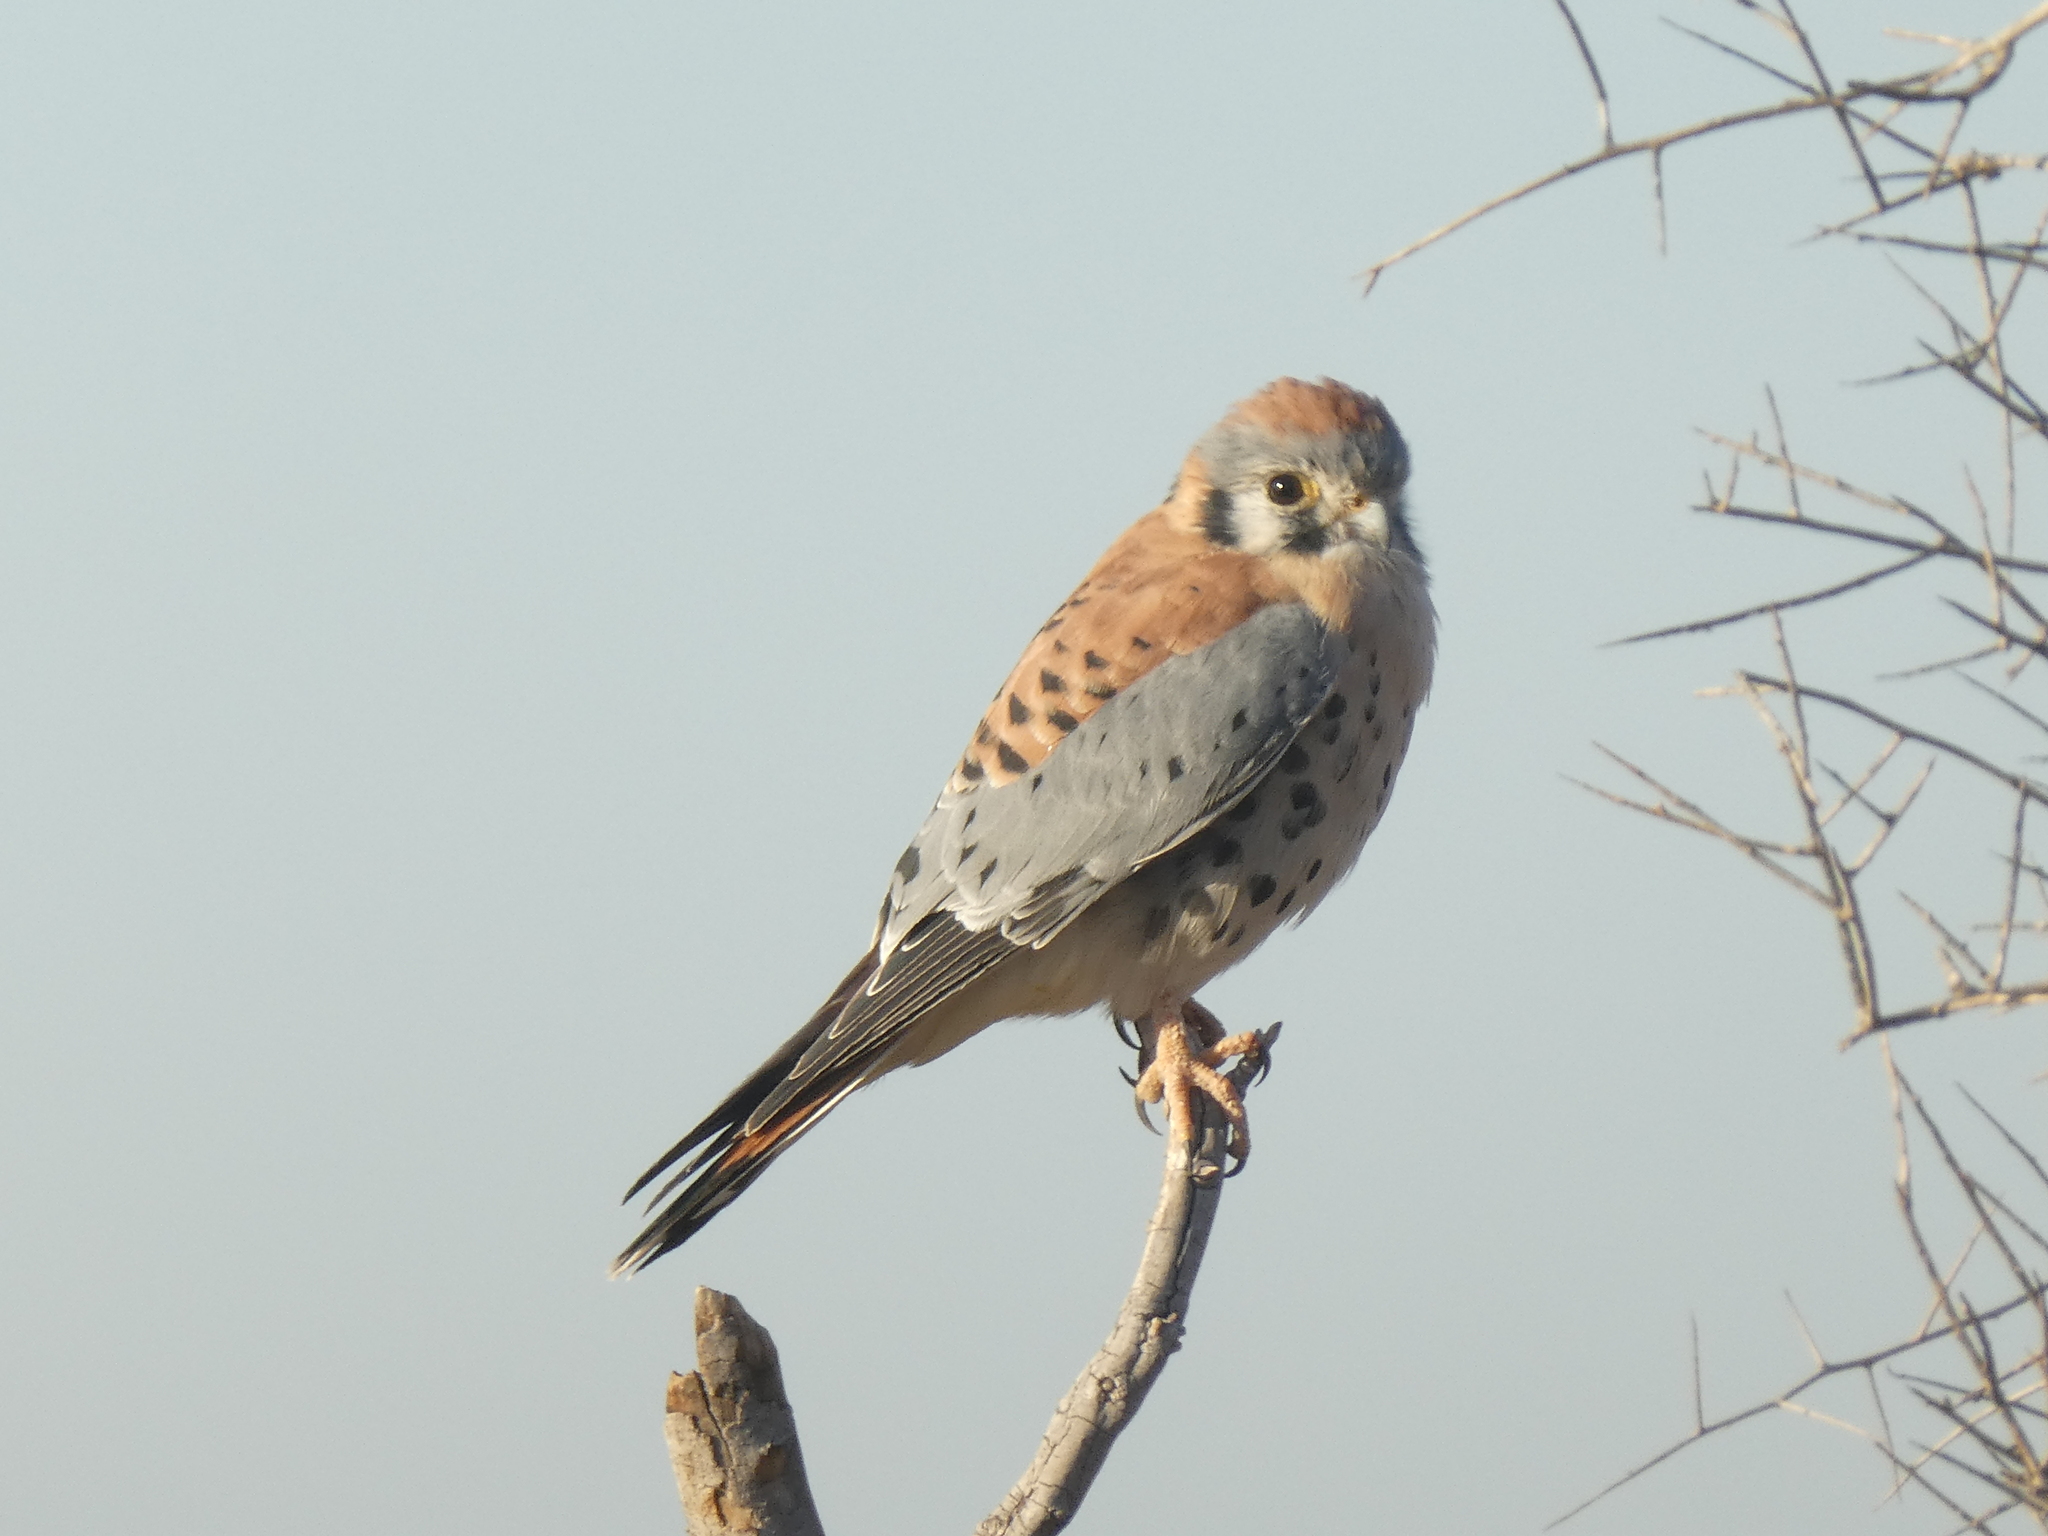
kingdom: Animalia
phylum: Chordata
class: Aves
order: Falconiformes
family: Falconidae
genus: Falco
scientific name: Falco sparverius
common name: American kestrel
